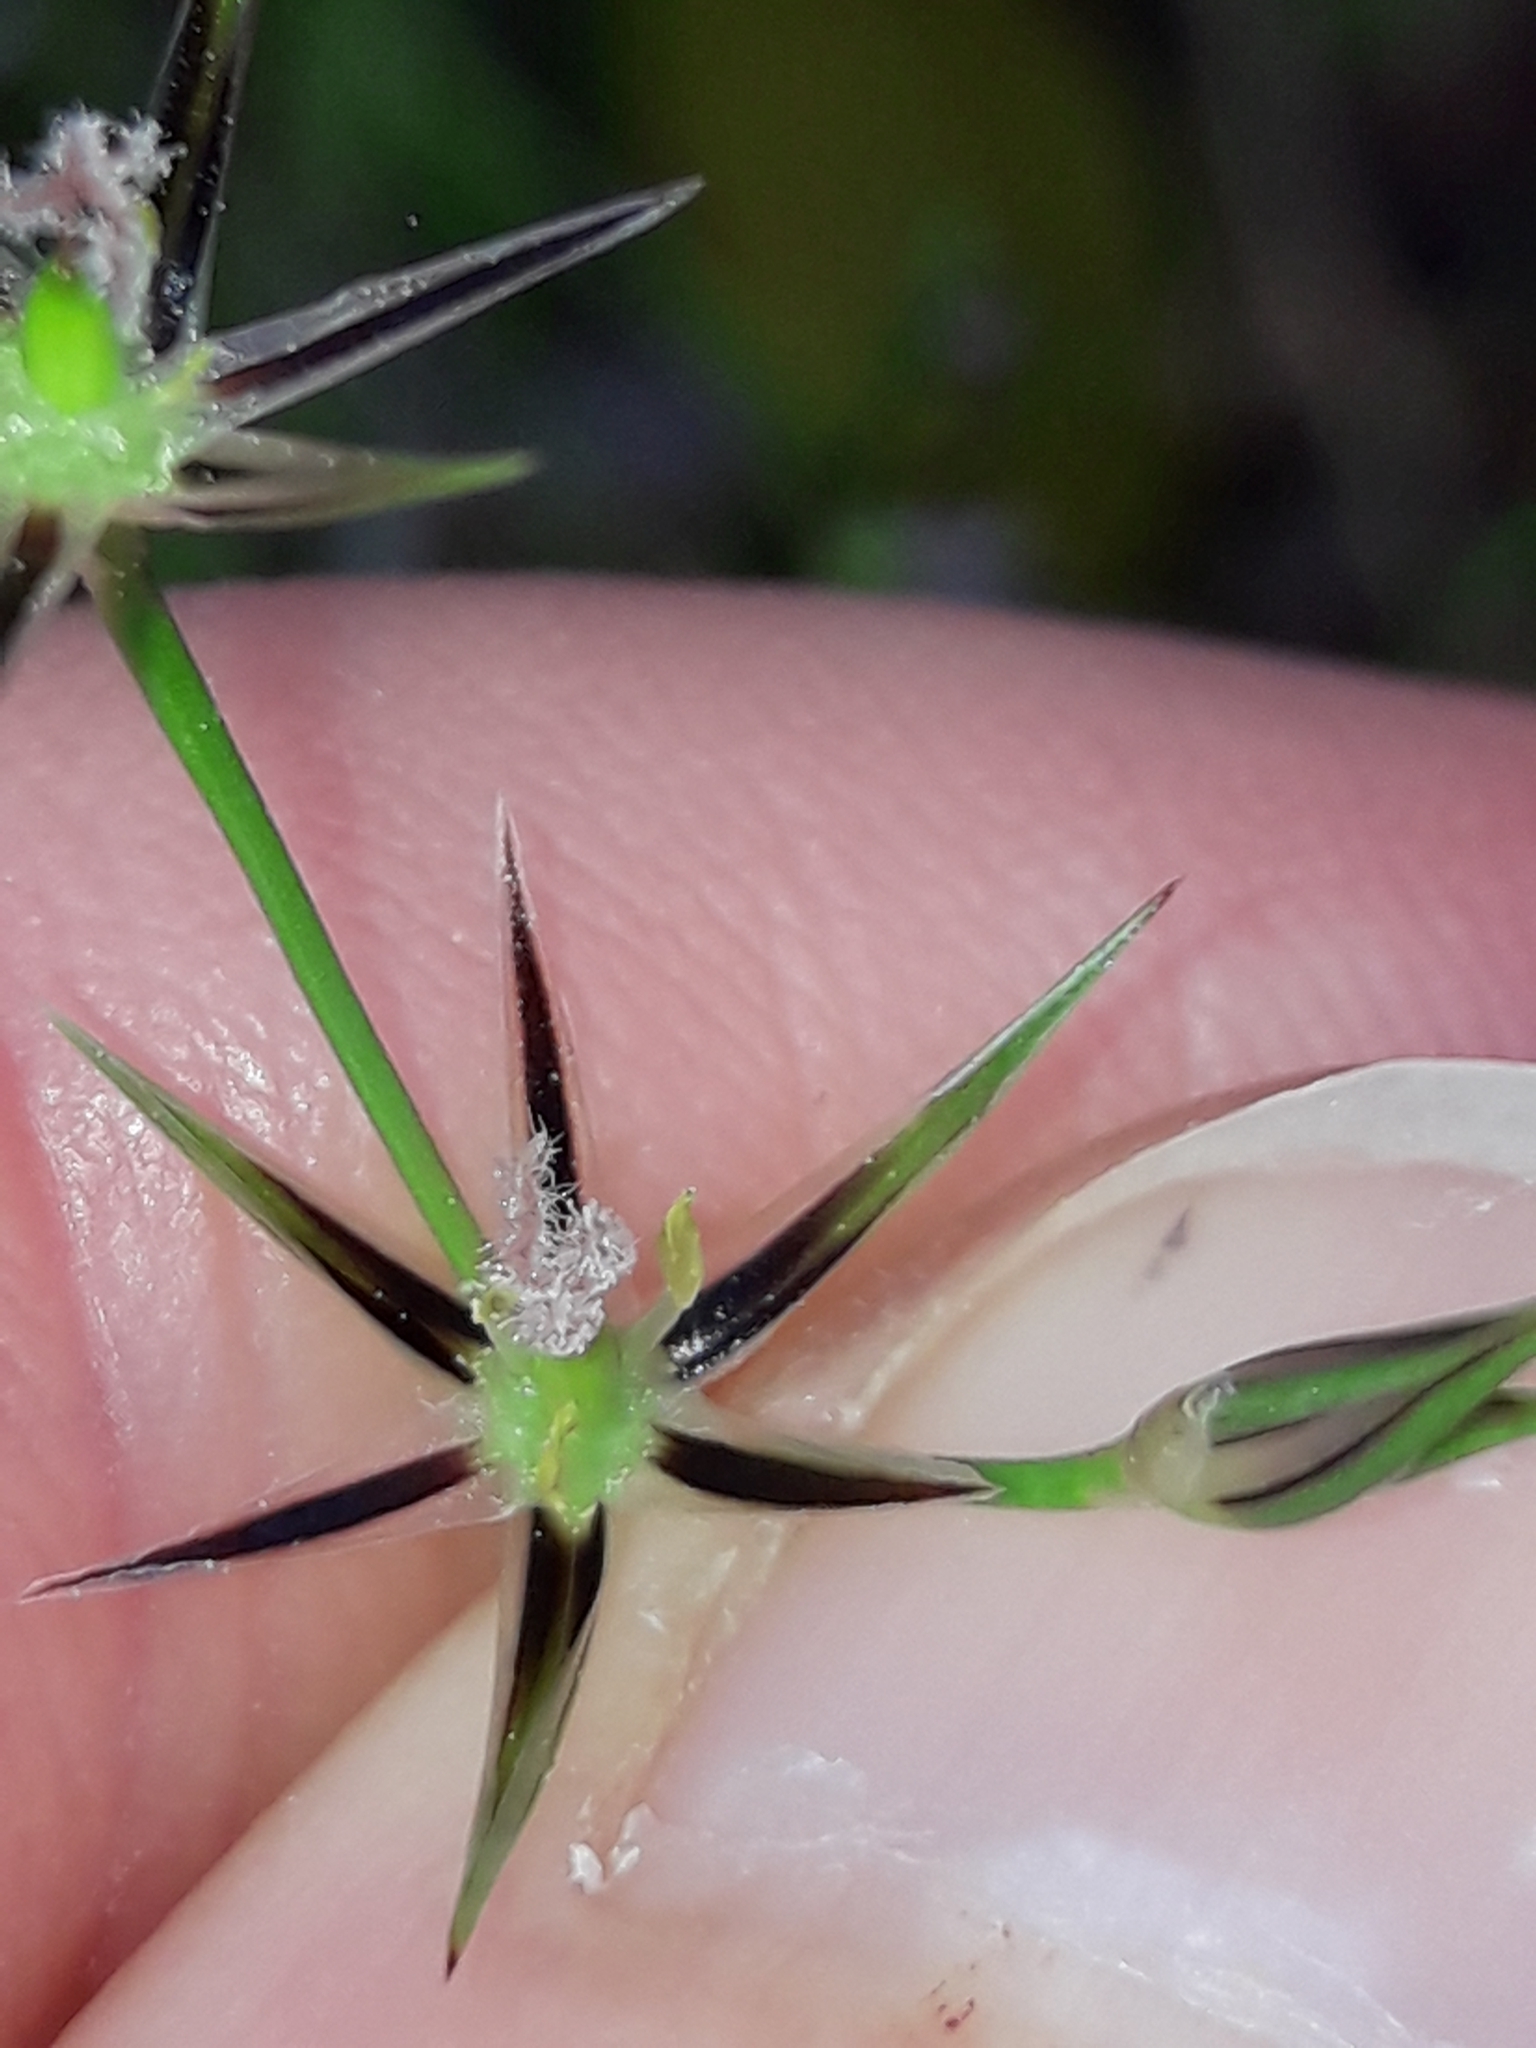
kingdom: Plantae
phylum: Tracheophyta
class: Liliopsida
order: Poales
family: Juncaceae
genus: Juncus
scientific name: Juncus bufonius
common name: Toad rush
